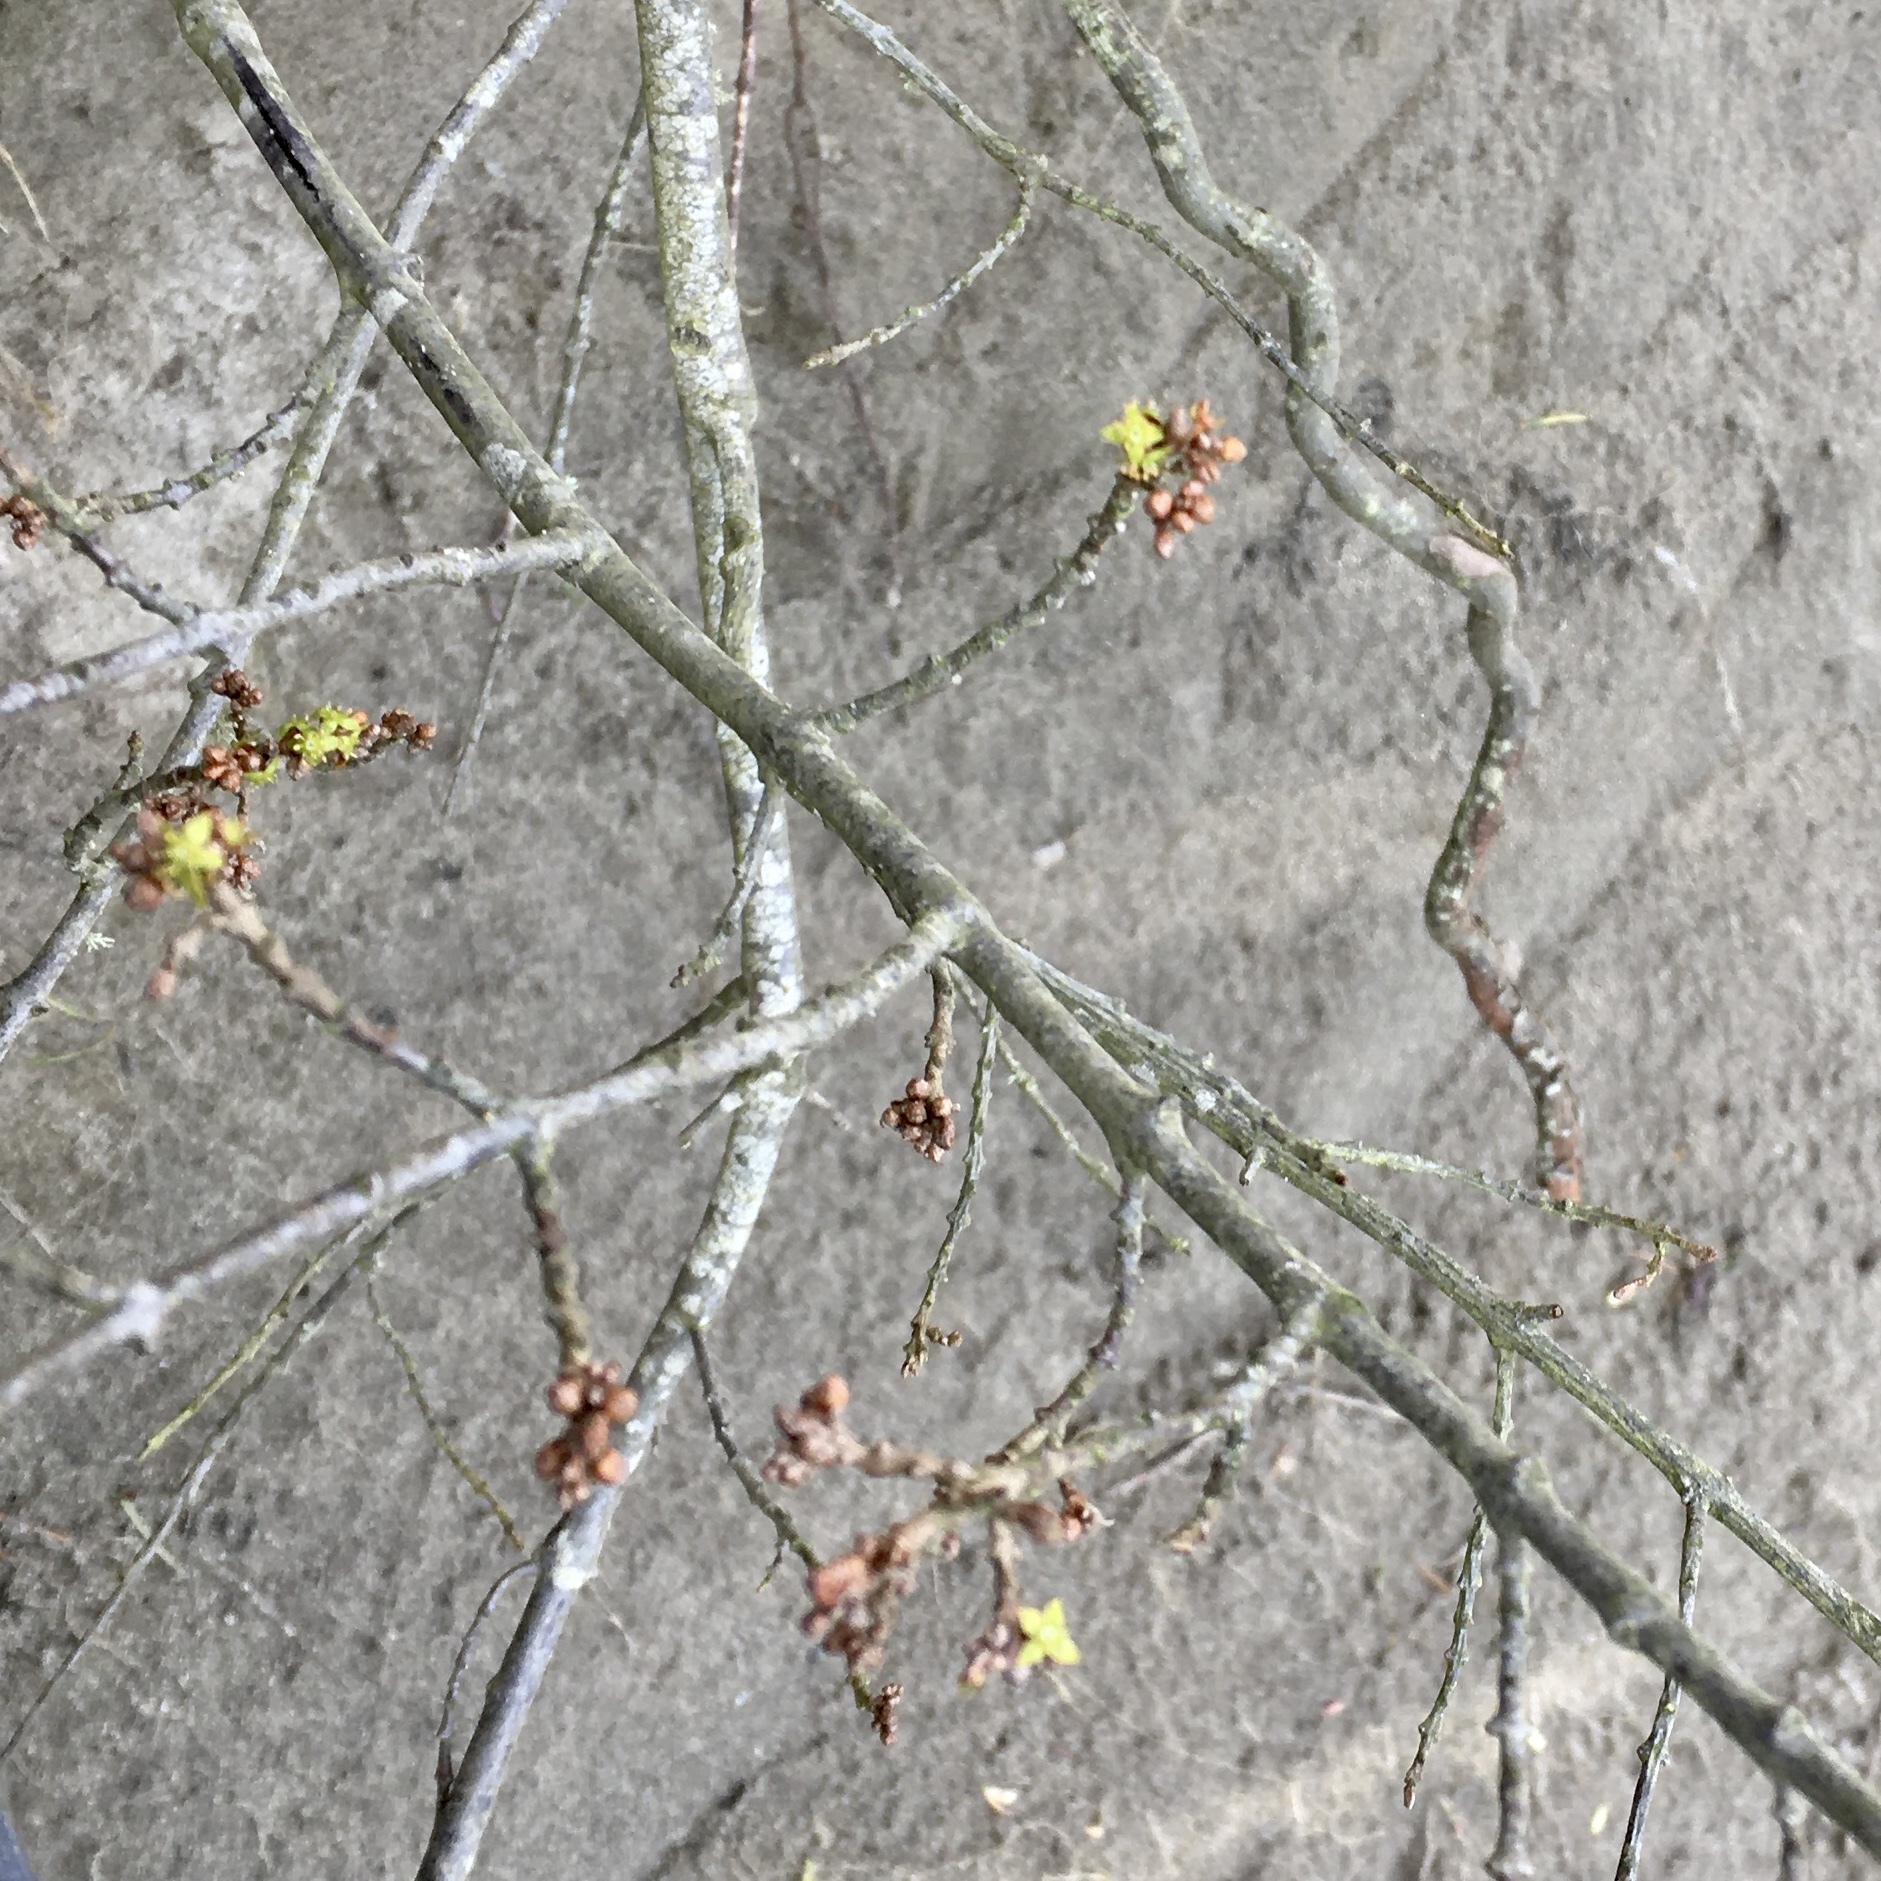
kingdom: Plantae
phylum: Tracheophyta
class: Magnoliopsida
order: Rosales
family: Elaeagnaceae
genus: Shepherdia
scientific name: Shepherdia canadensis
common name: Soapberry
